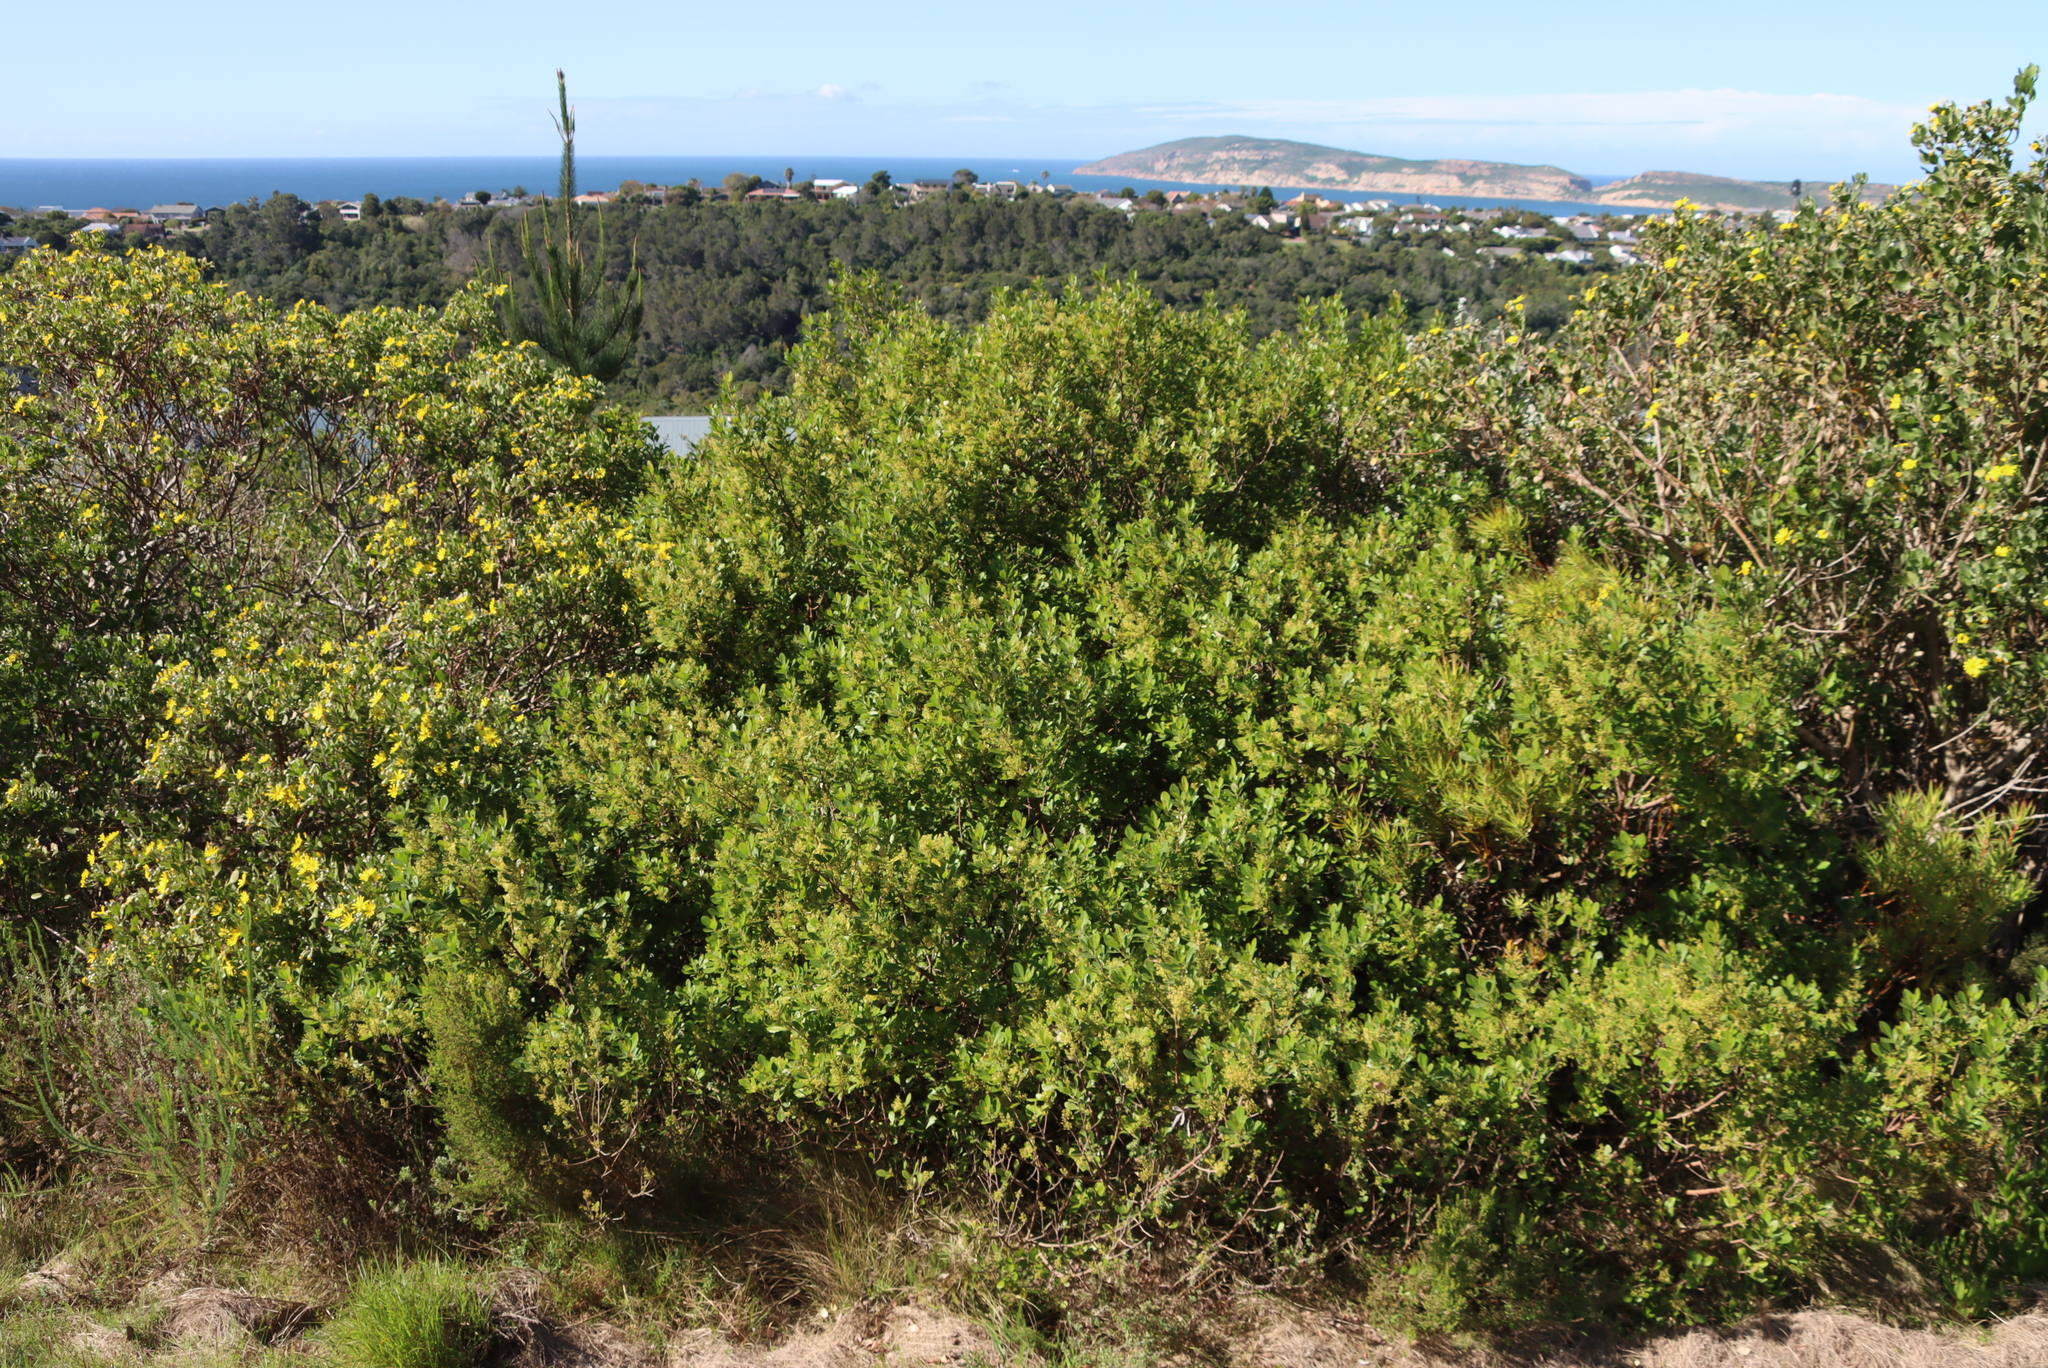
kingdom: Plantae
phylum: Tracheophyta
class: Magnoliopsida
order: Sapindales
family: Anacardiaceae
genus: Searsia
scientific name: Searsia lucida
